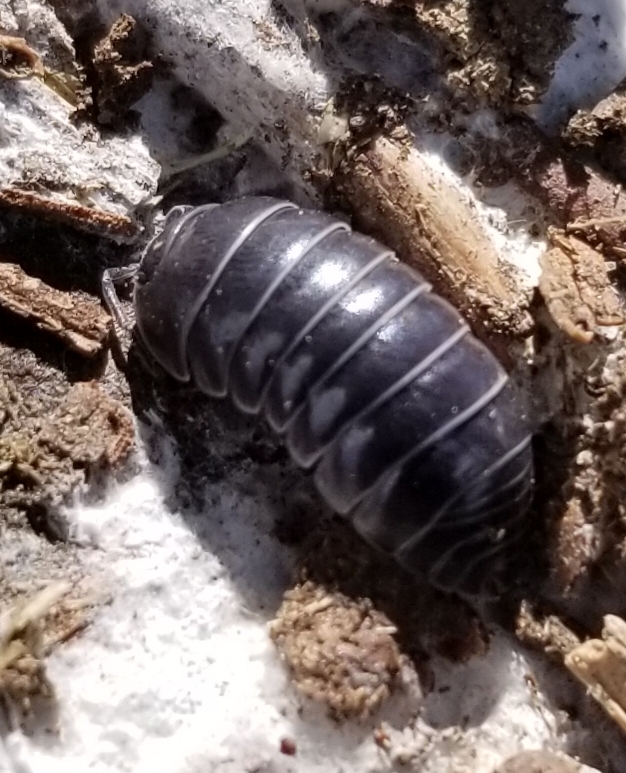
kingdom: Animalia
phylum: Arthropoda
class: Malacostraca
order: Isopoda
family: Armadillidiidae
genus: Armadillidium
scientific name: Armadillidium vulgare
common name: Common pill woodlouse
